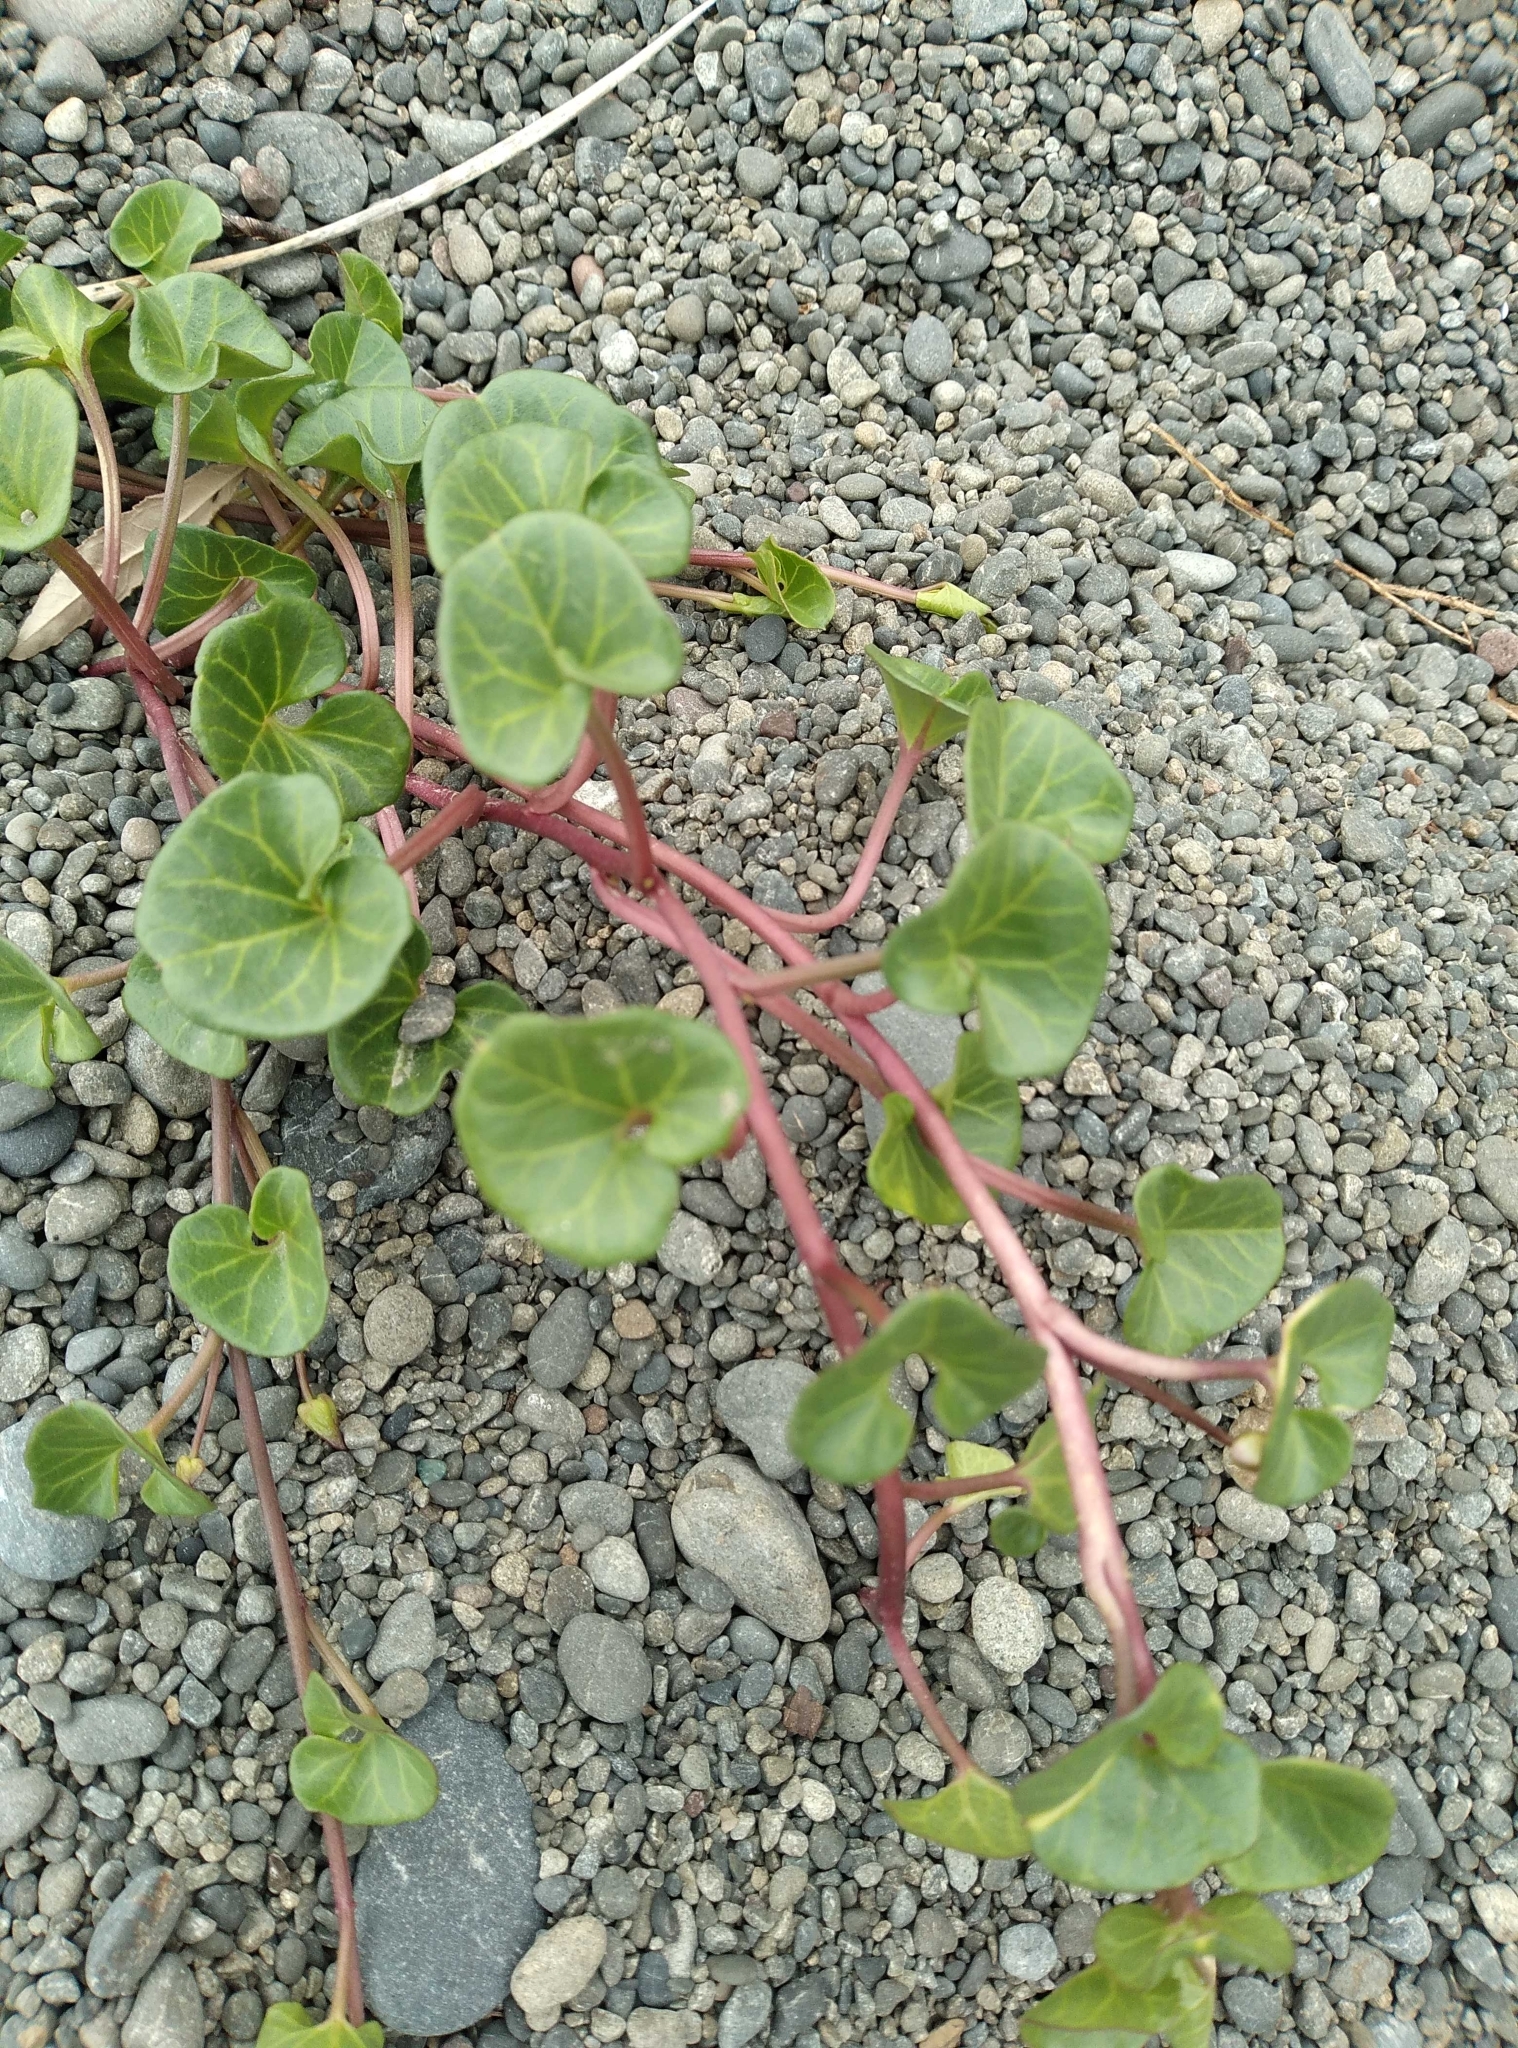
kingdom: Plantae
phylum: Tracheophyta
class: Magnoliopsida
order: Solanales
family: Convolvulaceae
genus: Calystegia
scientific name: Calystegia soldanella
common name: Sea bindweed
